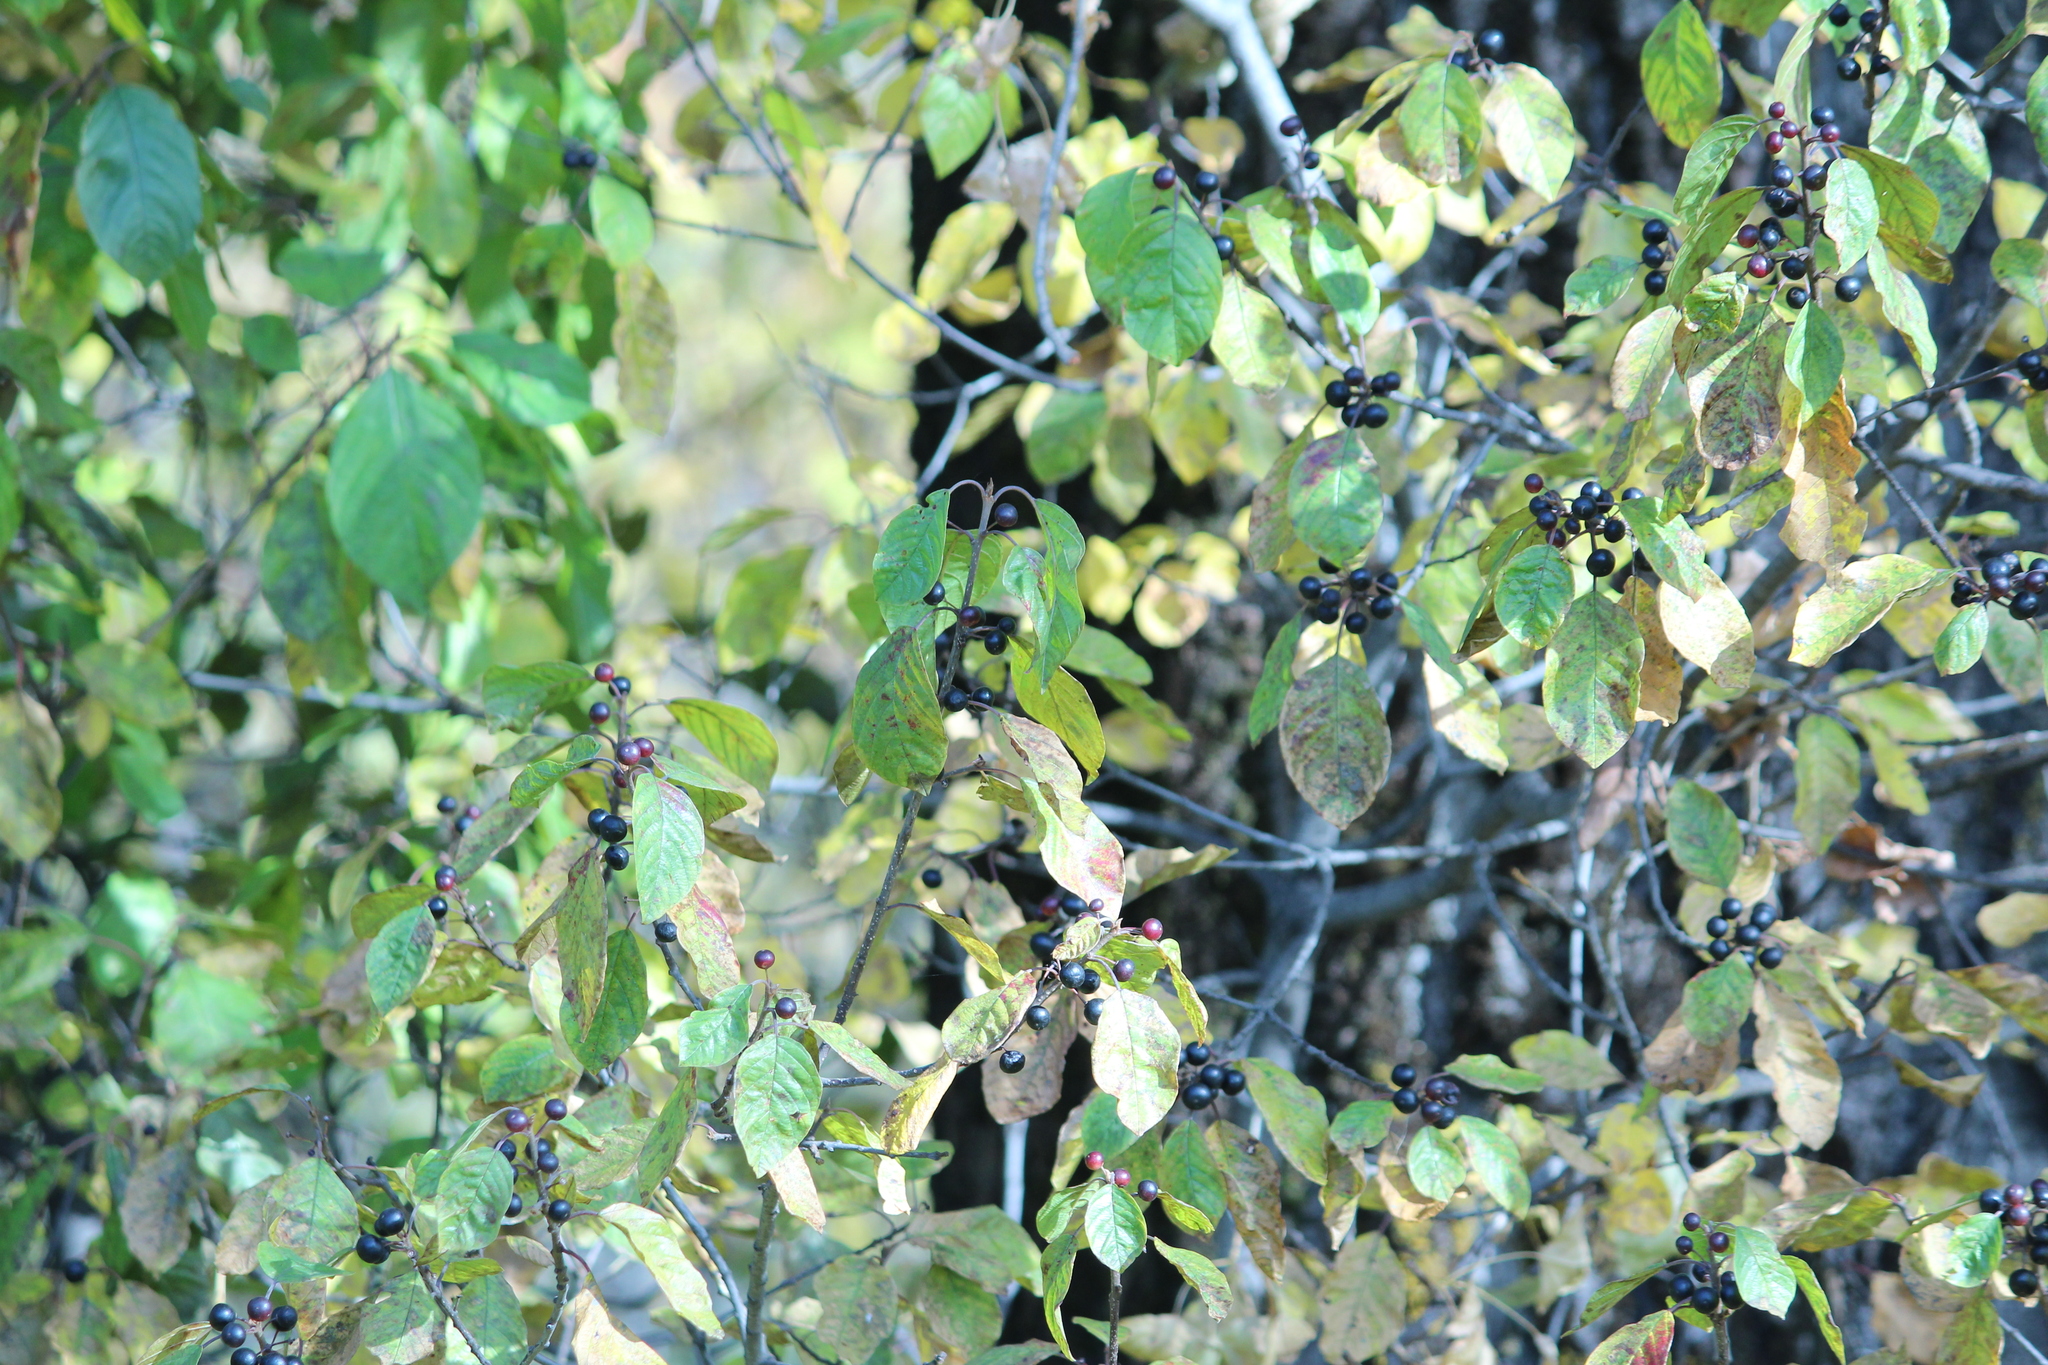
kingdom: Plantae
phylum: Tracheophyta
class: Magnoliopsida
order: Rosales
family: Rhamnaceae
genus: Frangula
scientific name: Frangula alnus
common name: Alder buckthorn
